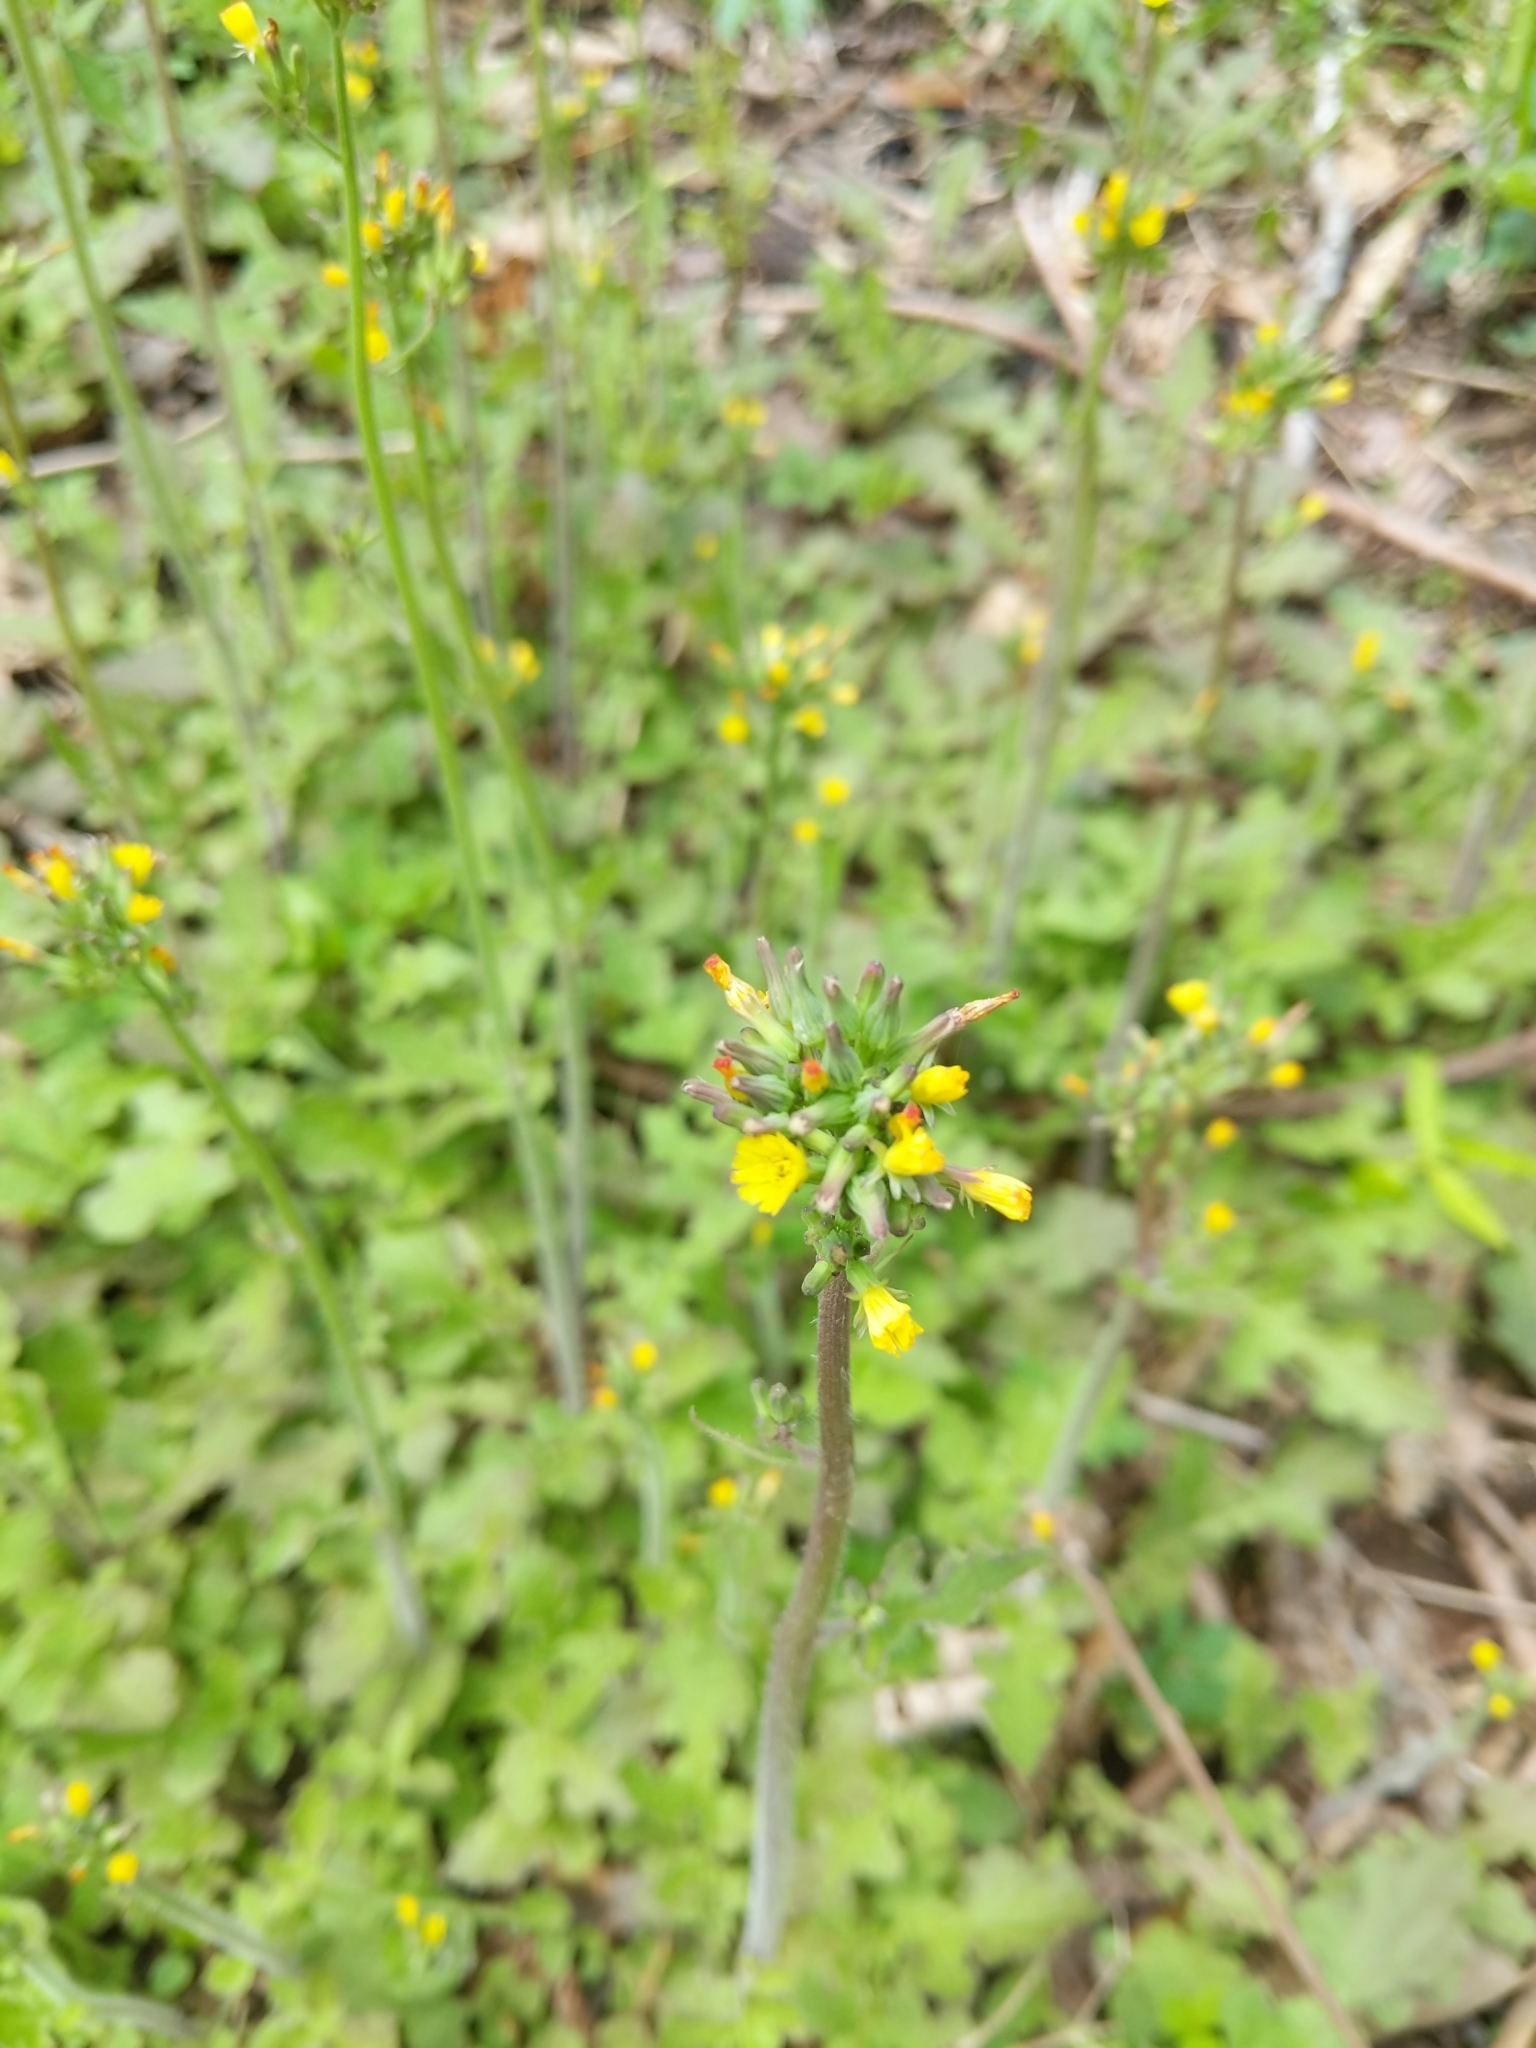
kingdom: Plantae
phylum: Tracheophyta
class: Magnoliopsida
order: Asterales
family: Asteraceae
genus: Youngia
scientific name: Youngia japonica
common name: Oriental false hawksbeard
